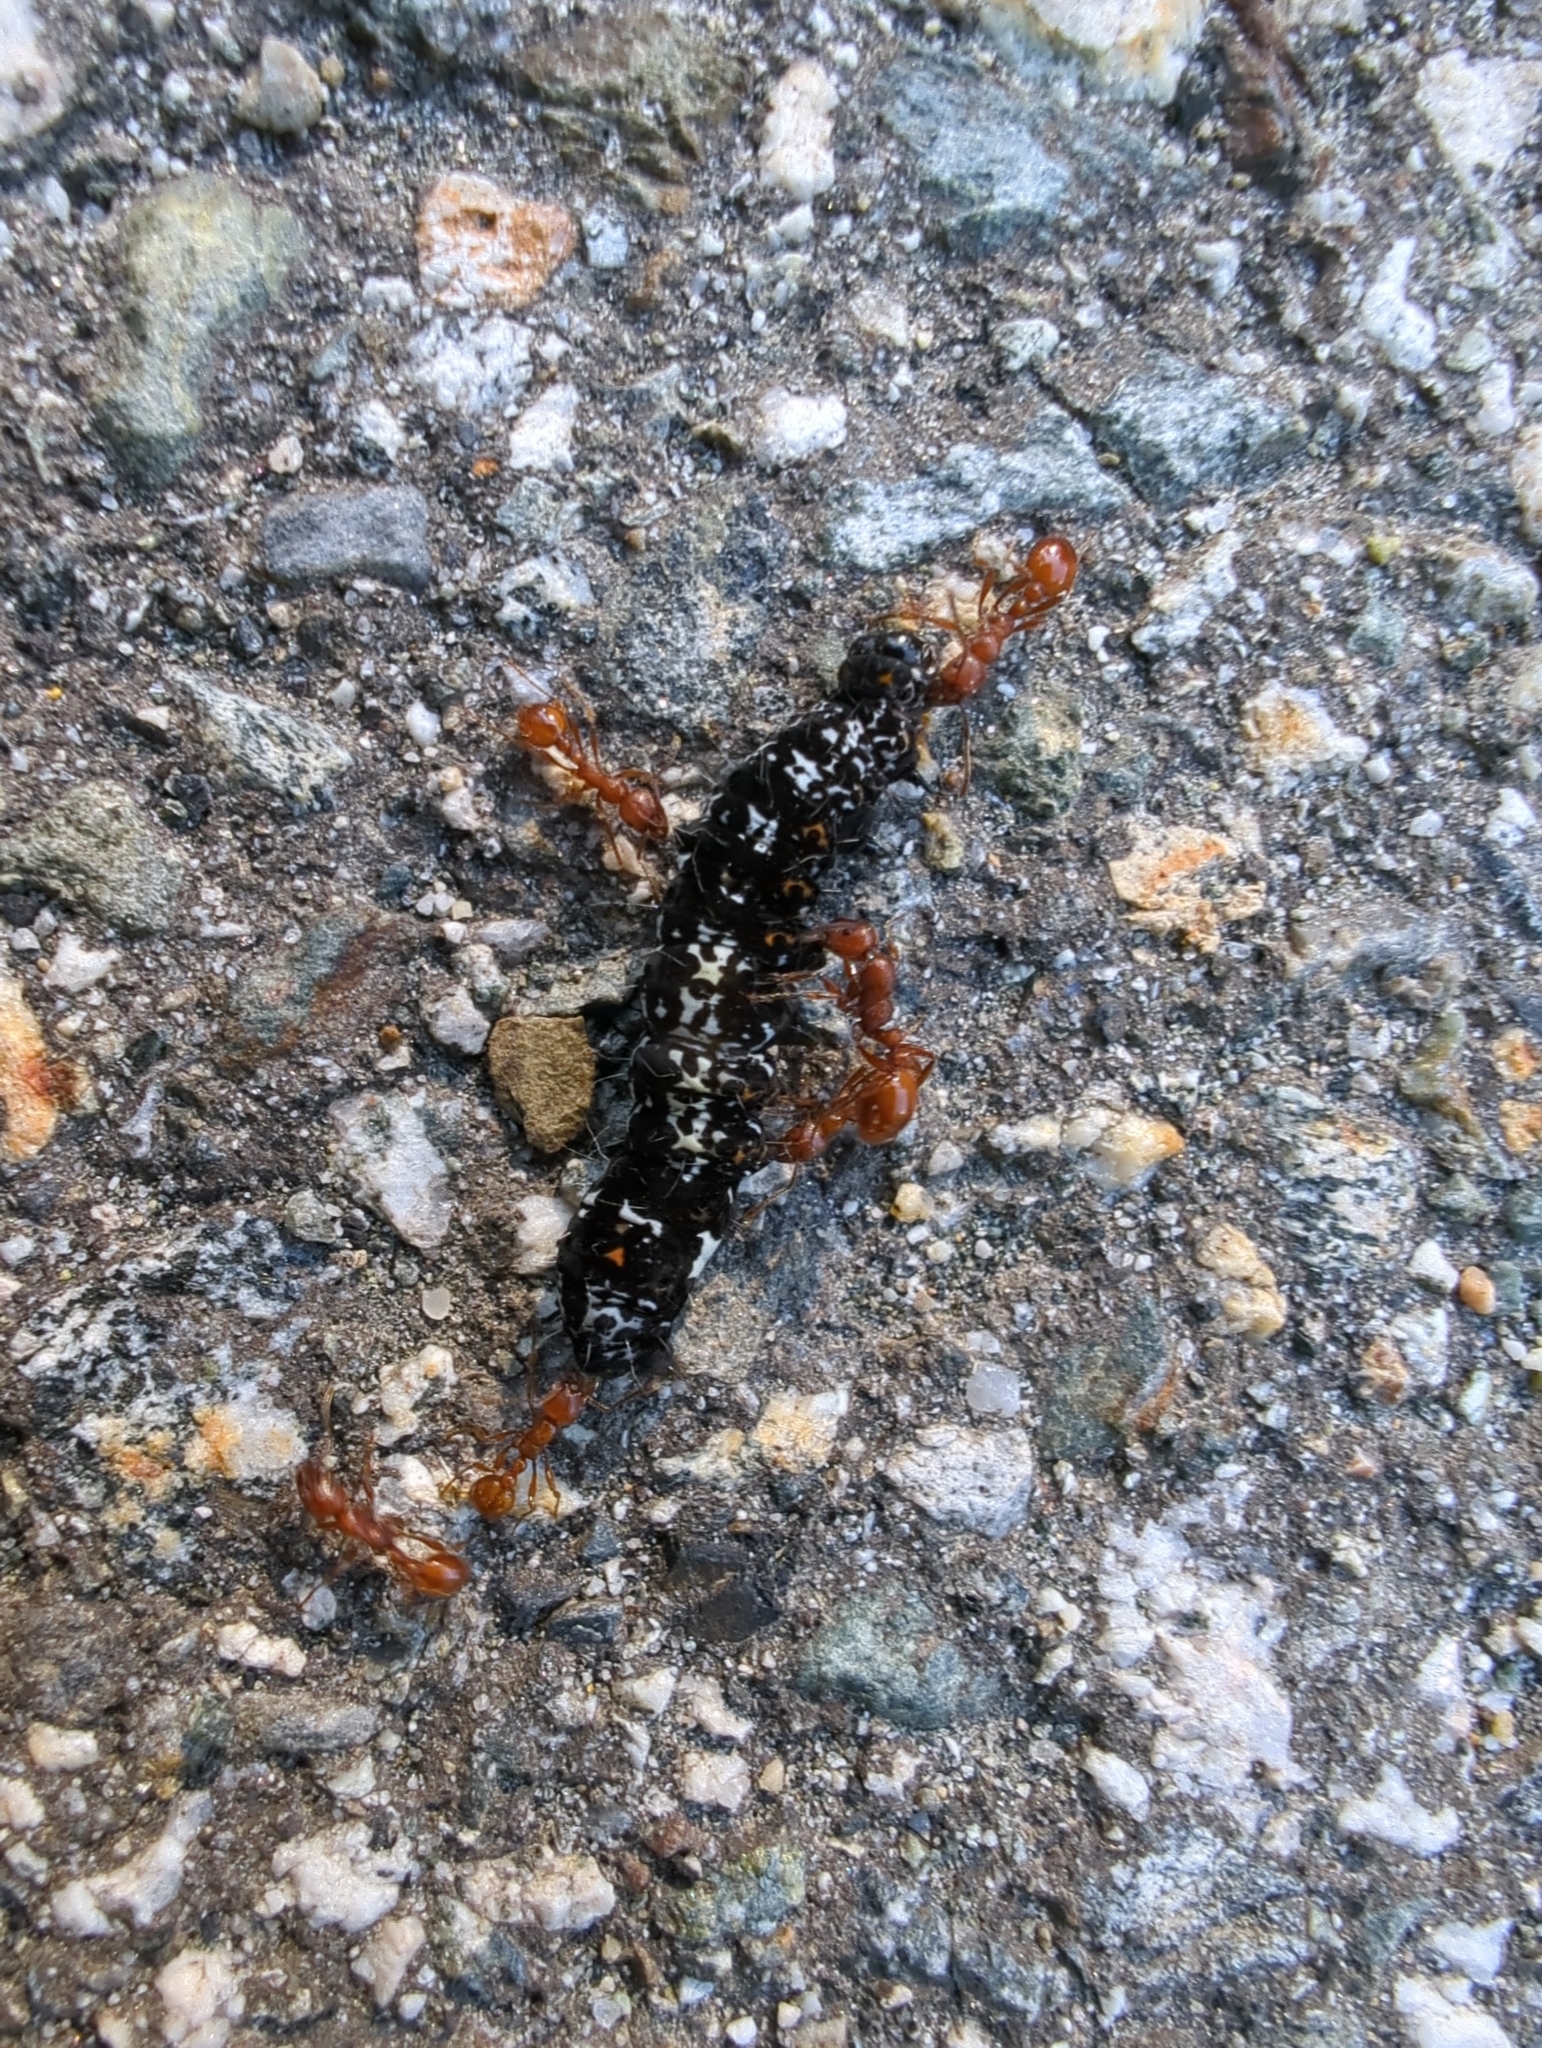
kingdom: Animalia
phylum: Arthropoda
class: Insecta
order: Lepidoptera
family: Noctuidae
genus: Alypia
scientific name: Alypia langtonii
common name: Fireweed caterpillar
